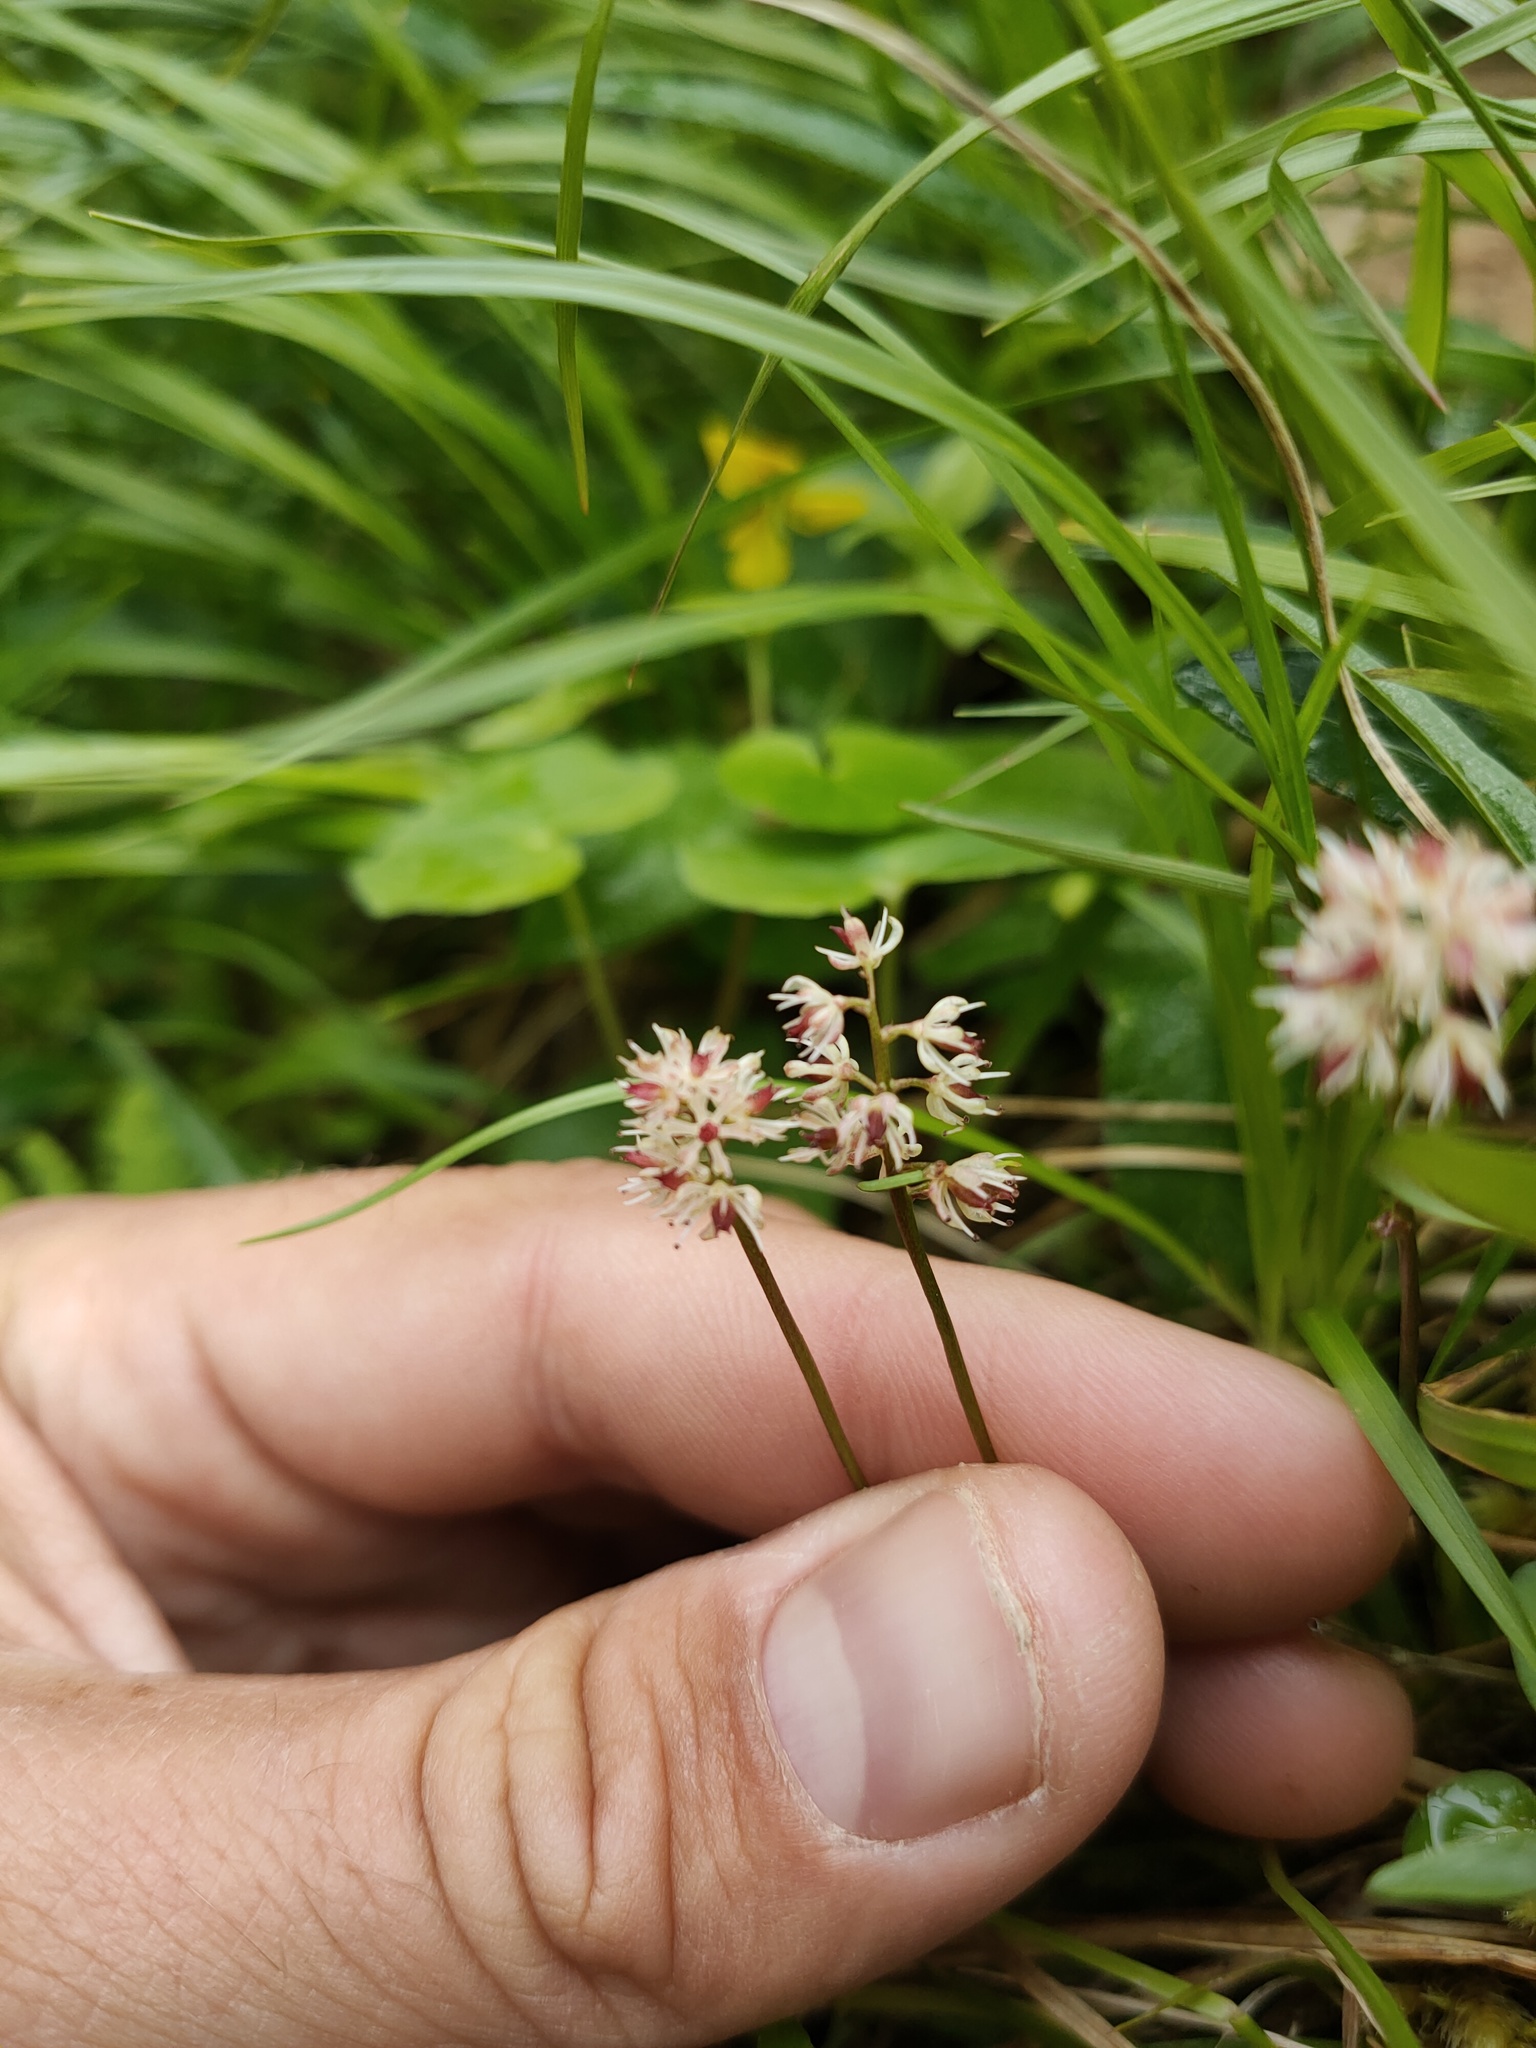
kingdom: Plantae
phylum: Tracheophyta
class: Liliopsida
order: Alismatales
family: Tofieldiaceae
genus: Tofieldia
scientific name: Tofieldia coccinea
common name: Northern false asphodel
